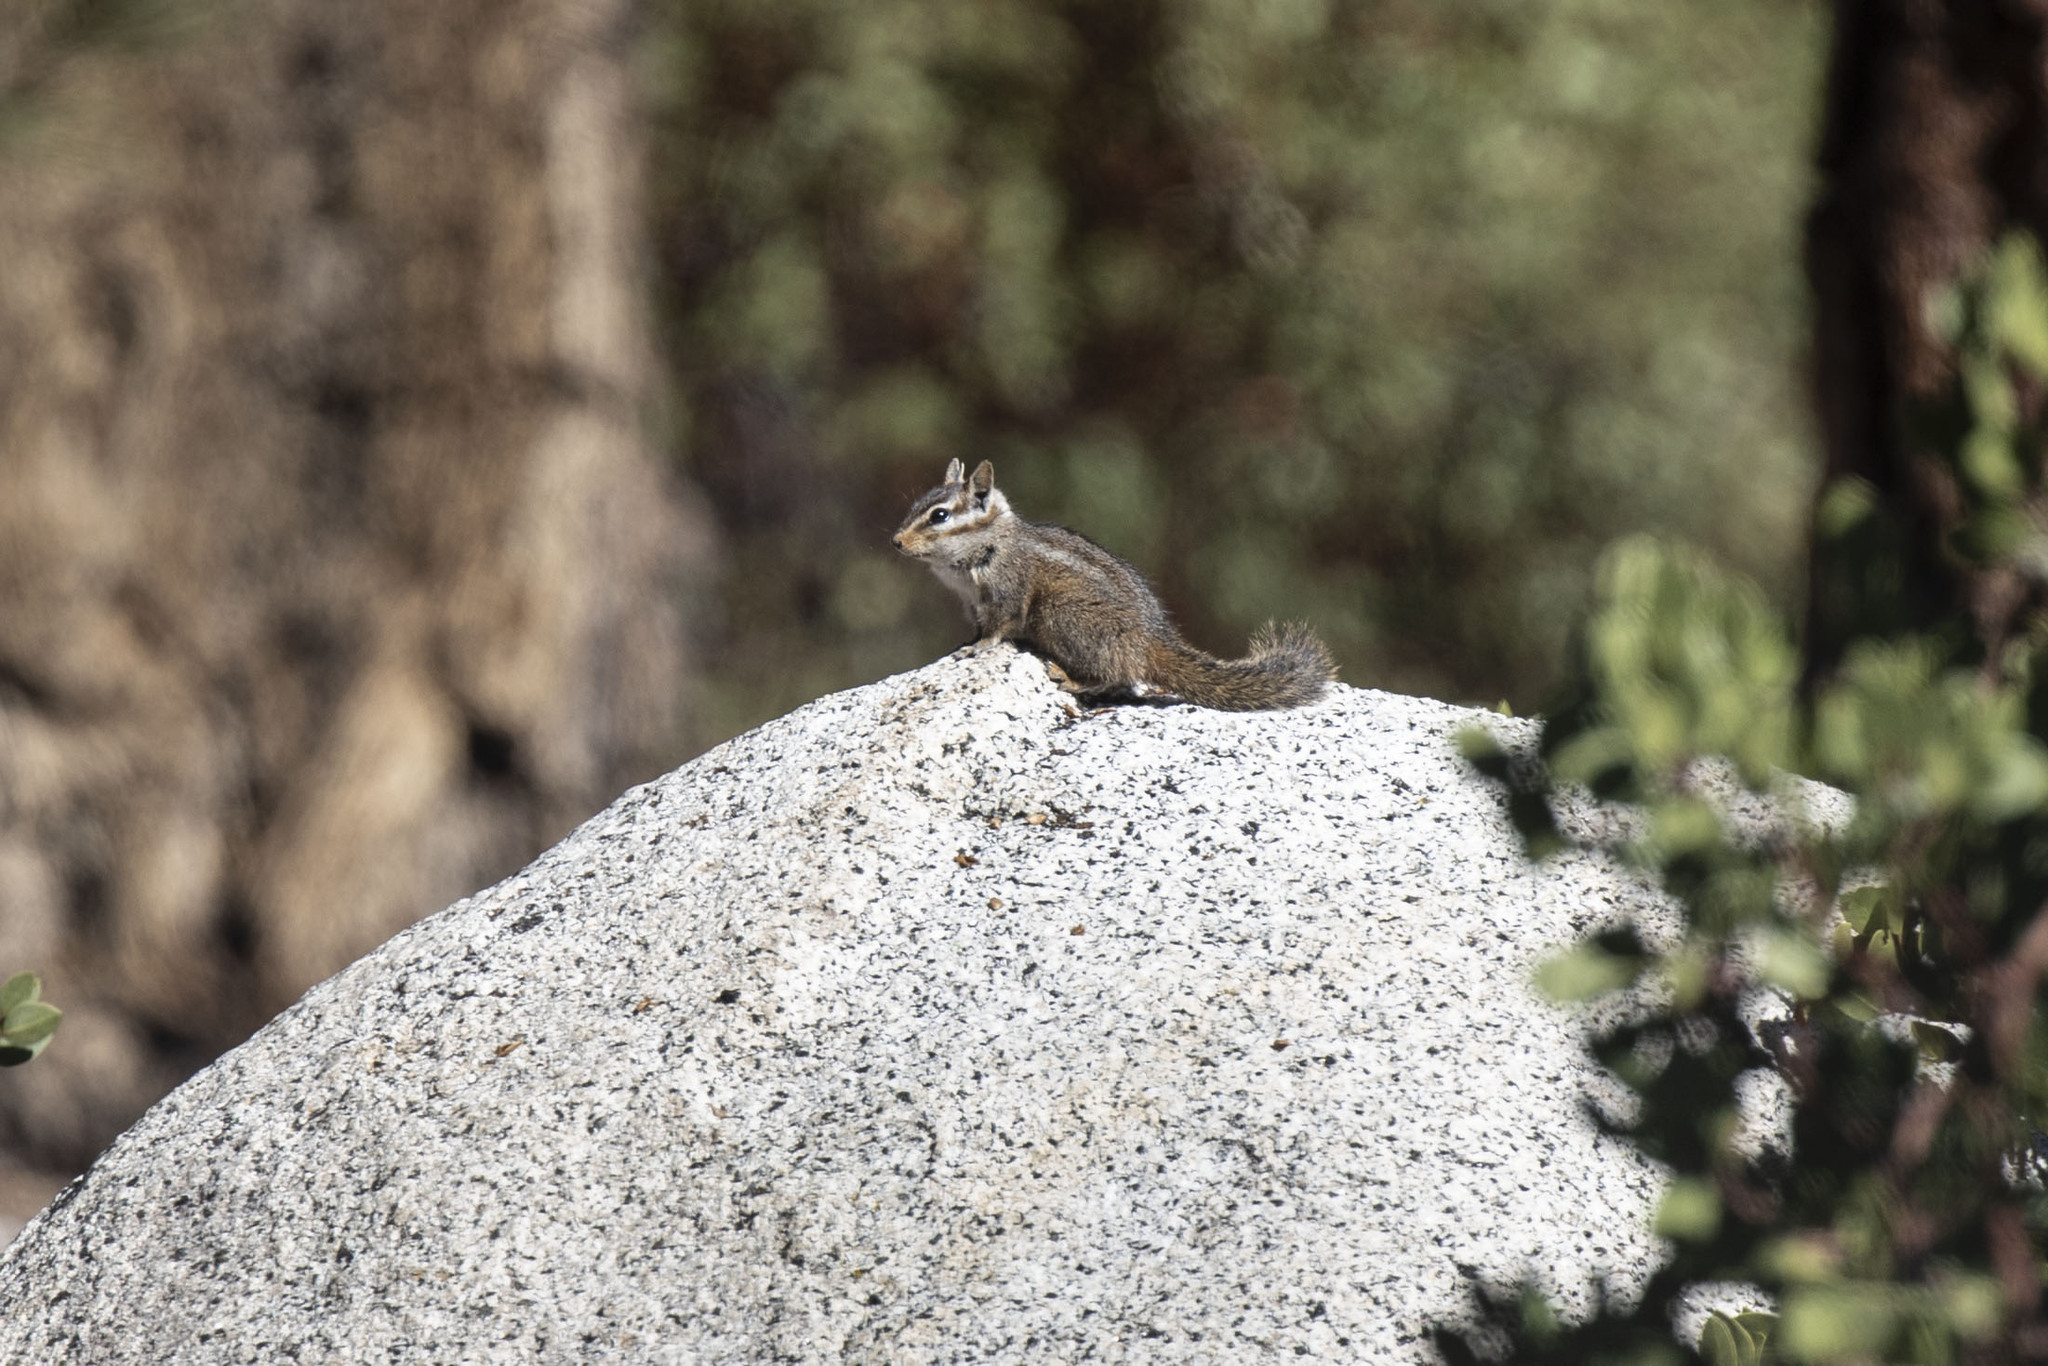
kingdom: Animalia
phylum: Chordata
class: Mammalia
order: Rodentia
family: Sciuridae
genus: Tamias
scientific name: Tamias obscurus
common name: California chipmunk
